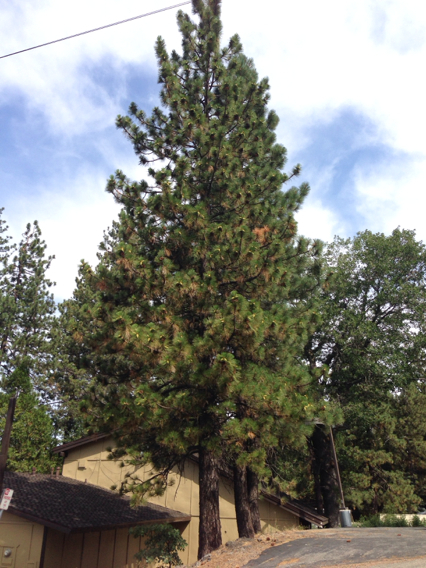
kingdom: Plantae
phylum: Tracheophyta
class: Pinopsida
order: Pinales
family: Pinaceae
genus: Pinus
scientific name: Pinus ponderosa
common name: Western yellow-pine
